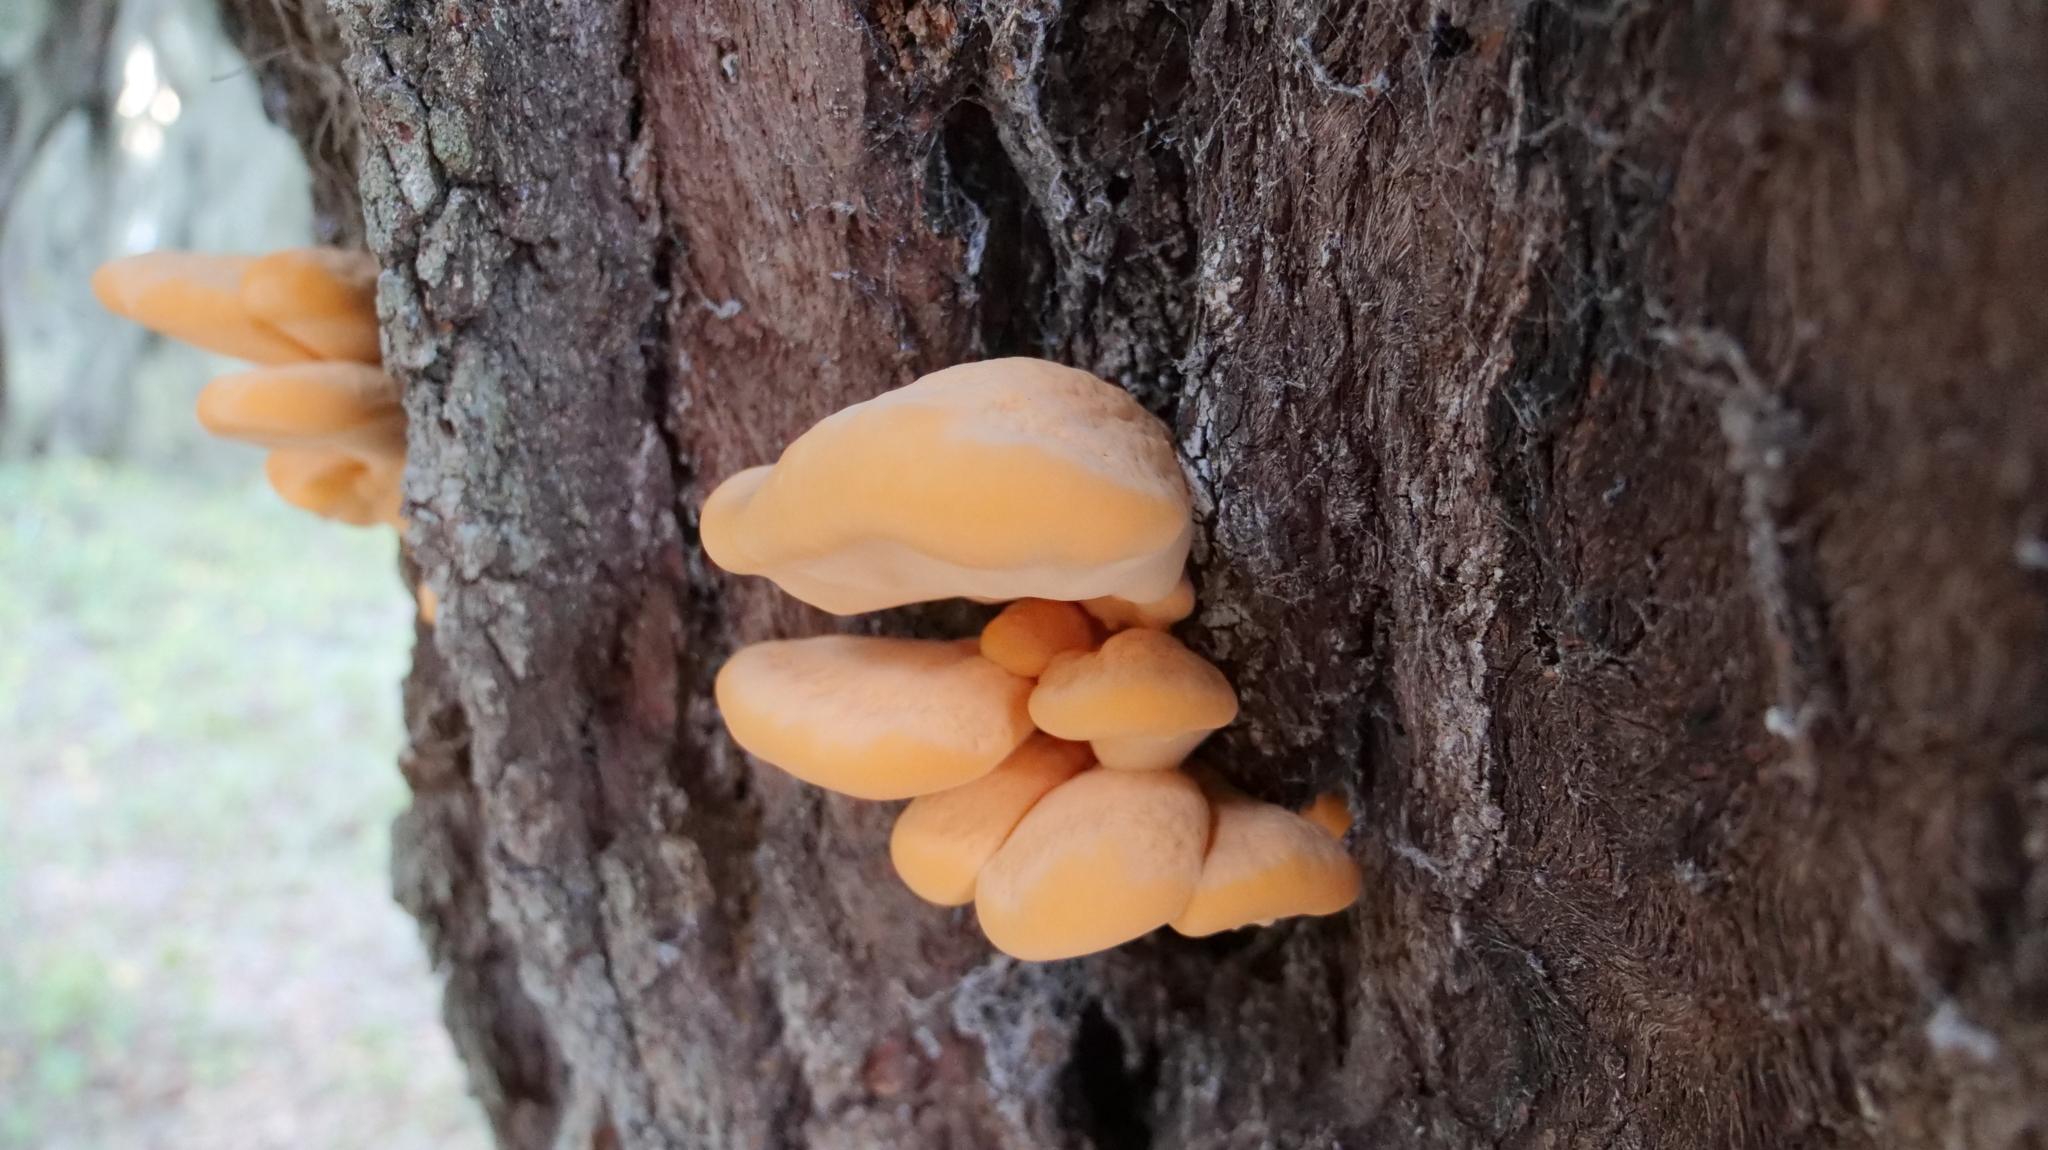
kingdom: Fungi
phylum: Basidiomycota
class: Agaricomycetes
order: Polyporales
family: Laetiporaceae
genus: Laetiporus
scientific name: Laetiporus gilbertsonii
